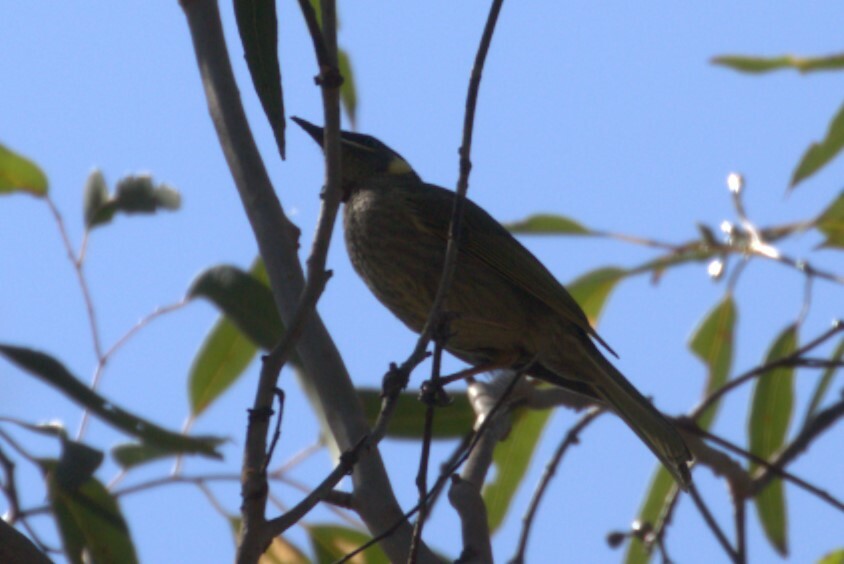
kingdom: Animalia
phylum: Chordata
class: Aves
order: Passeriformes
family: Meliphagidae
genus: Meliphaga
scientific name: Meliphaga lewinii
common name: Lewin's honeyeater
